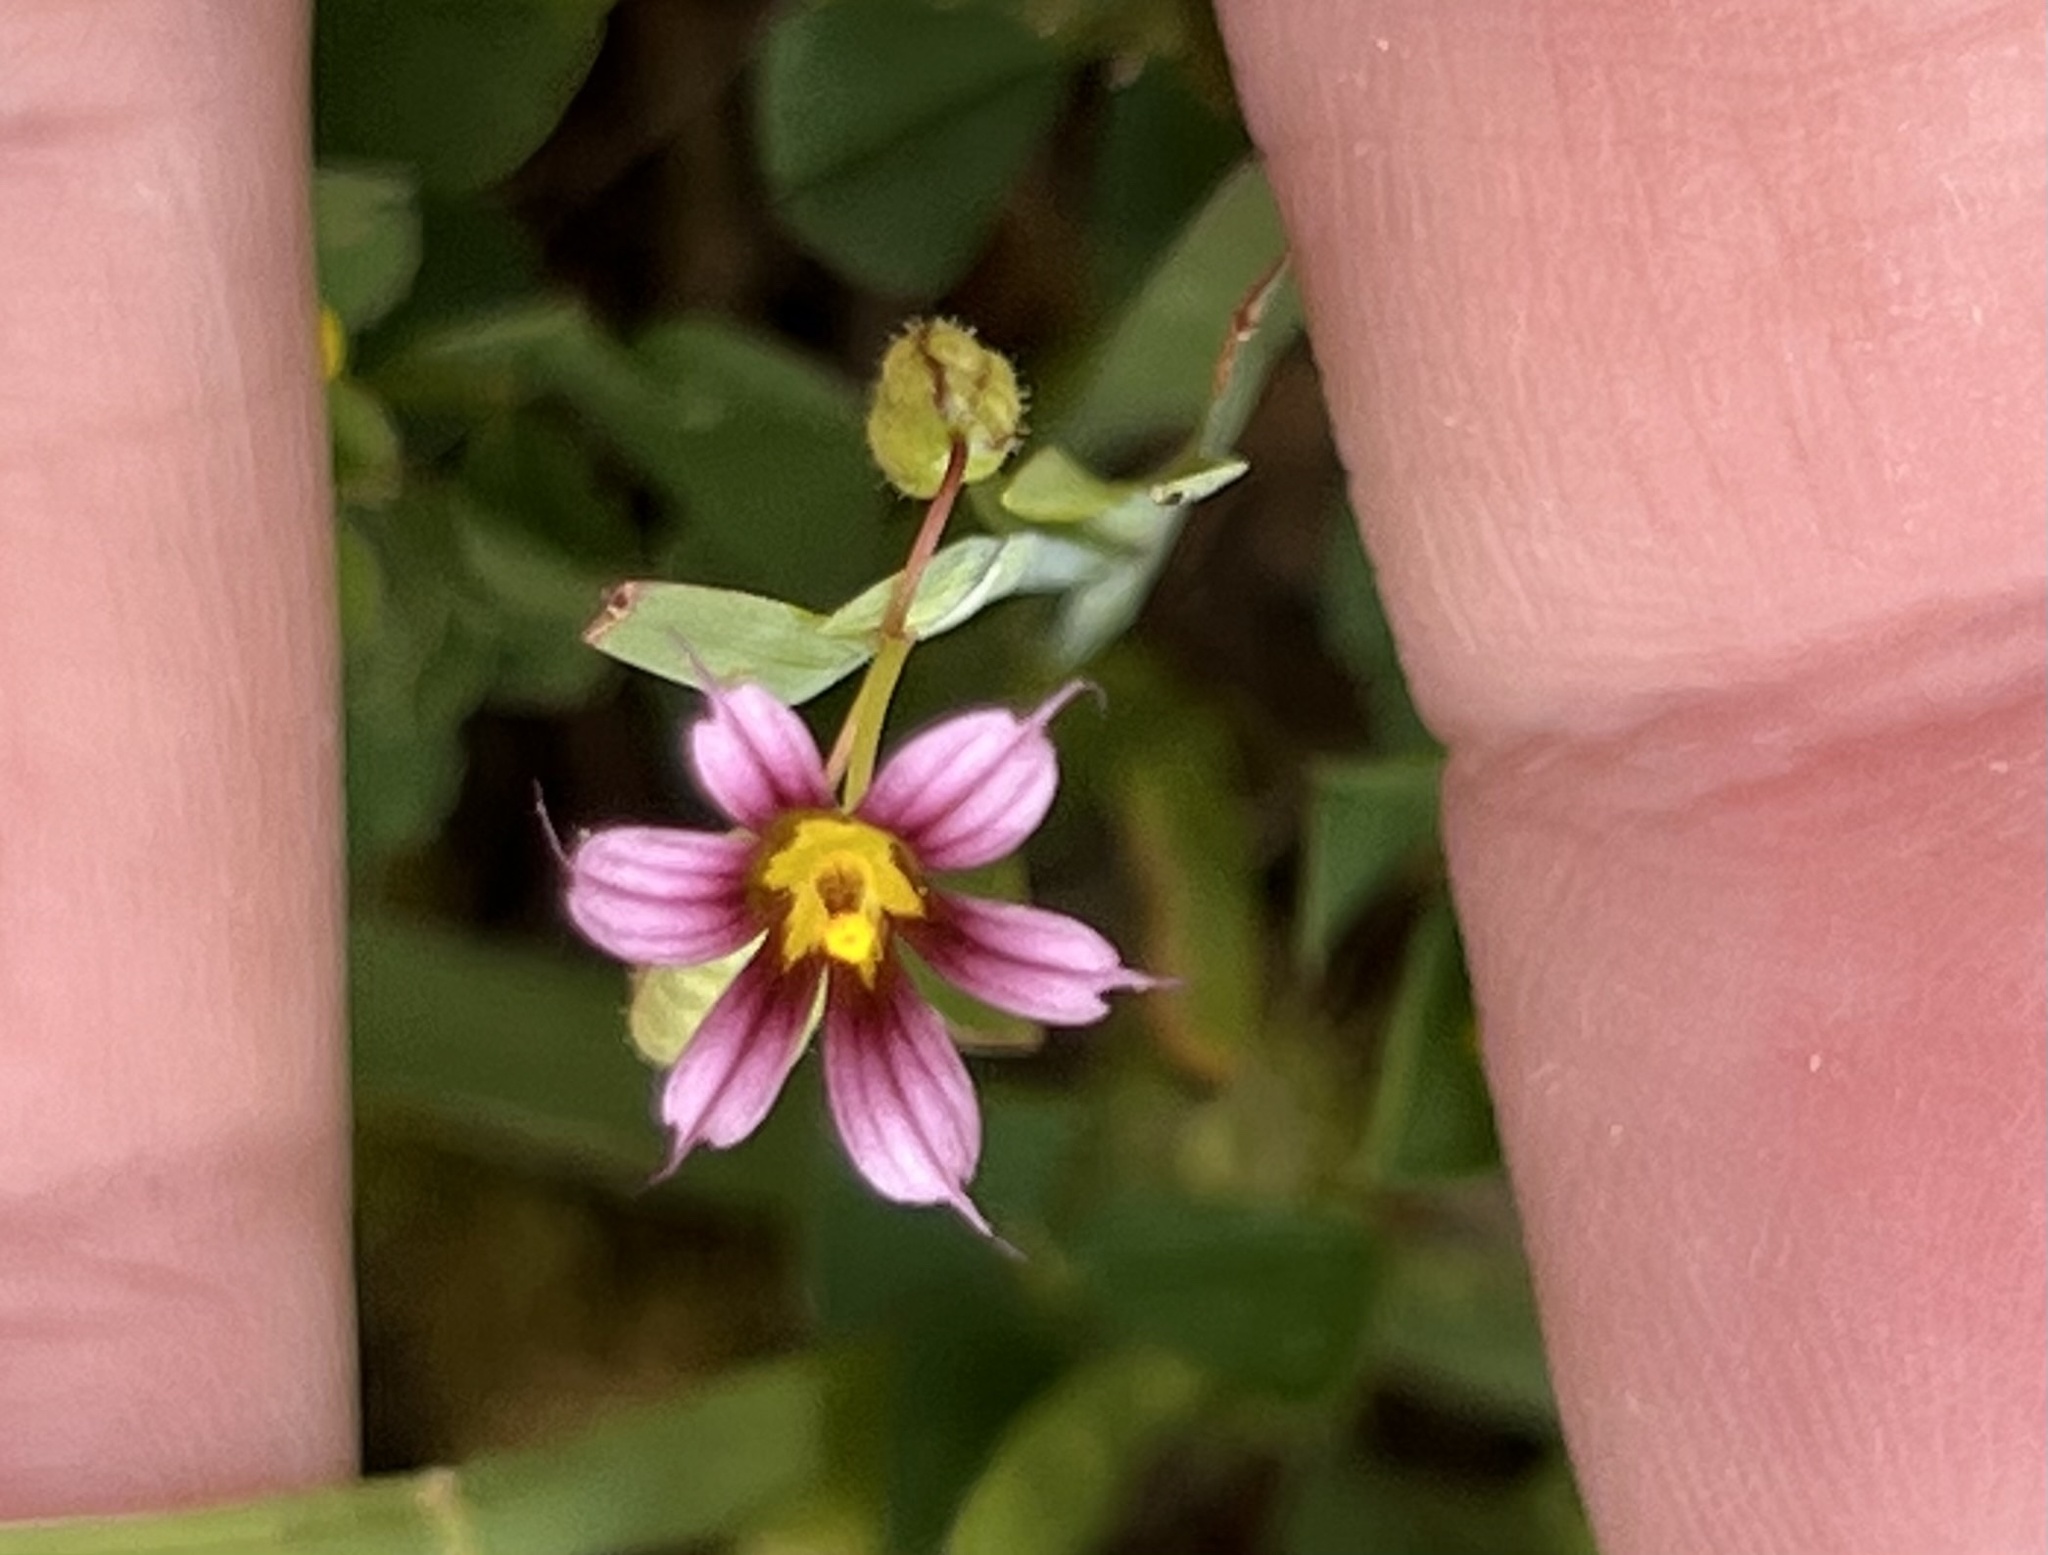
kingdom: Plantae
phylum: Tracheophyta
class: Liliopsida
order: Asparagales
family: Iridaceae
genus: Sisyrinchium
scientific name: Sisyrinchium minus
